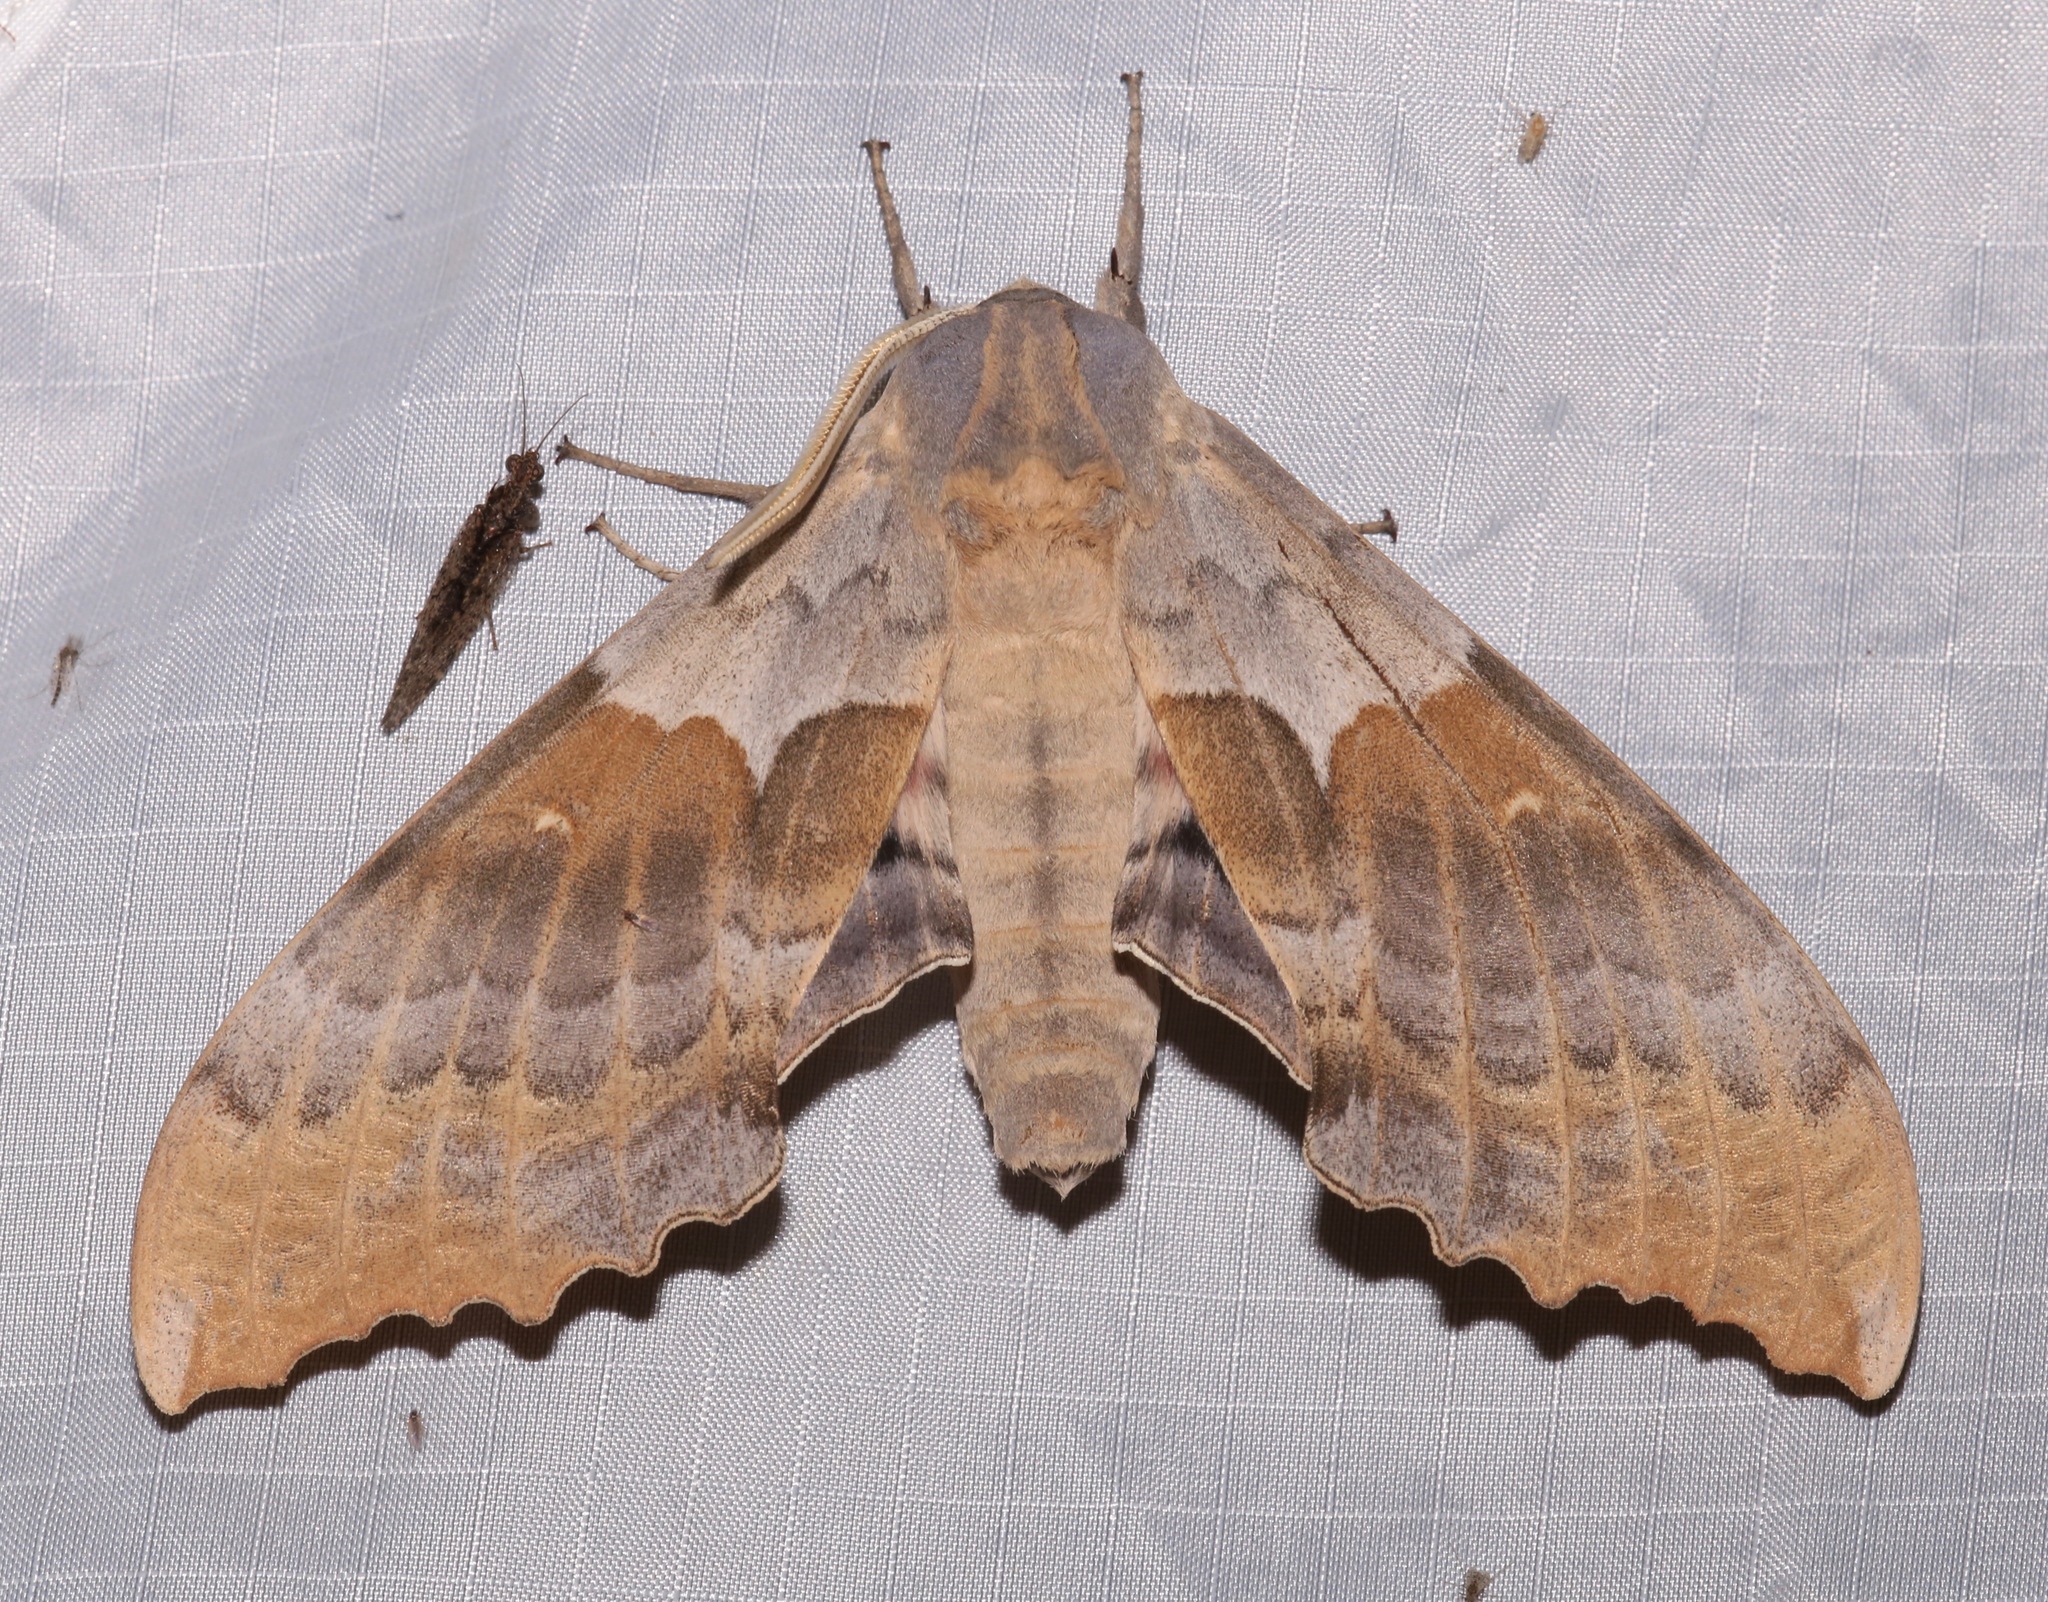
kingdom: Animalia
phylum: Arthropoda
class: Insecta
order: Lepidoptera
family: Sphingidae
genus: Pachysphinx
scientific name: Pachysphinx occidentalis
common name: Western poplar sphinx
